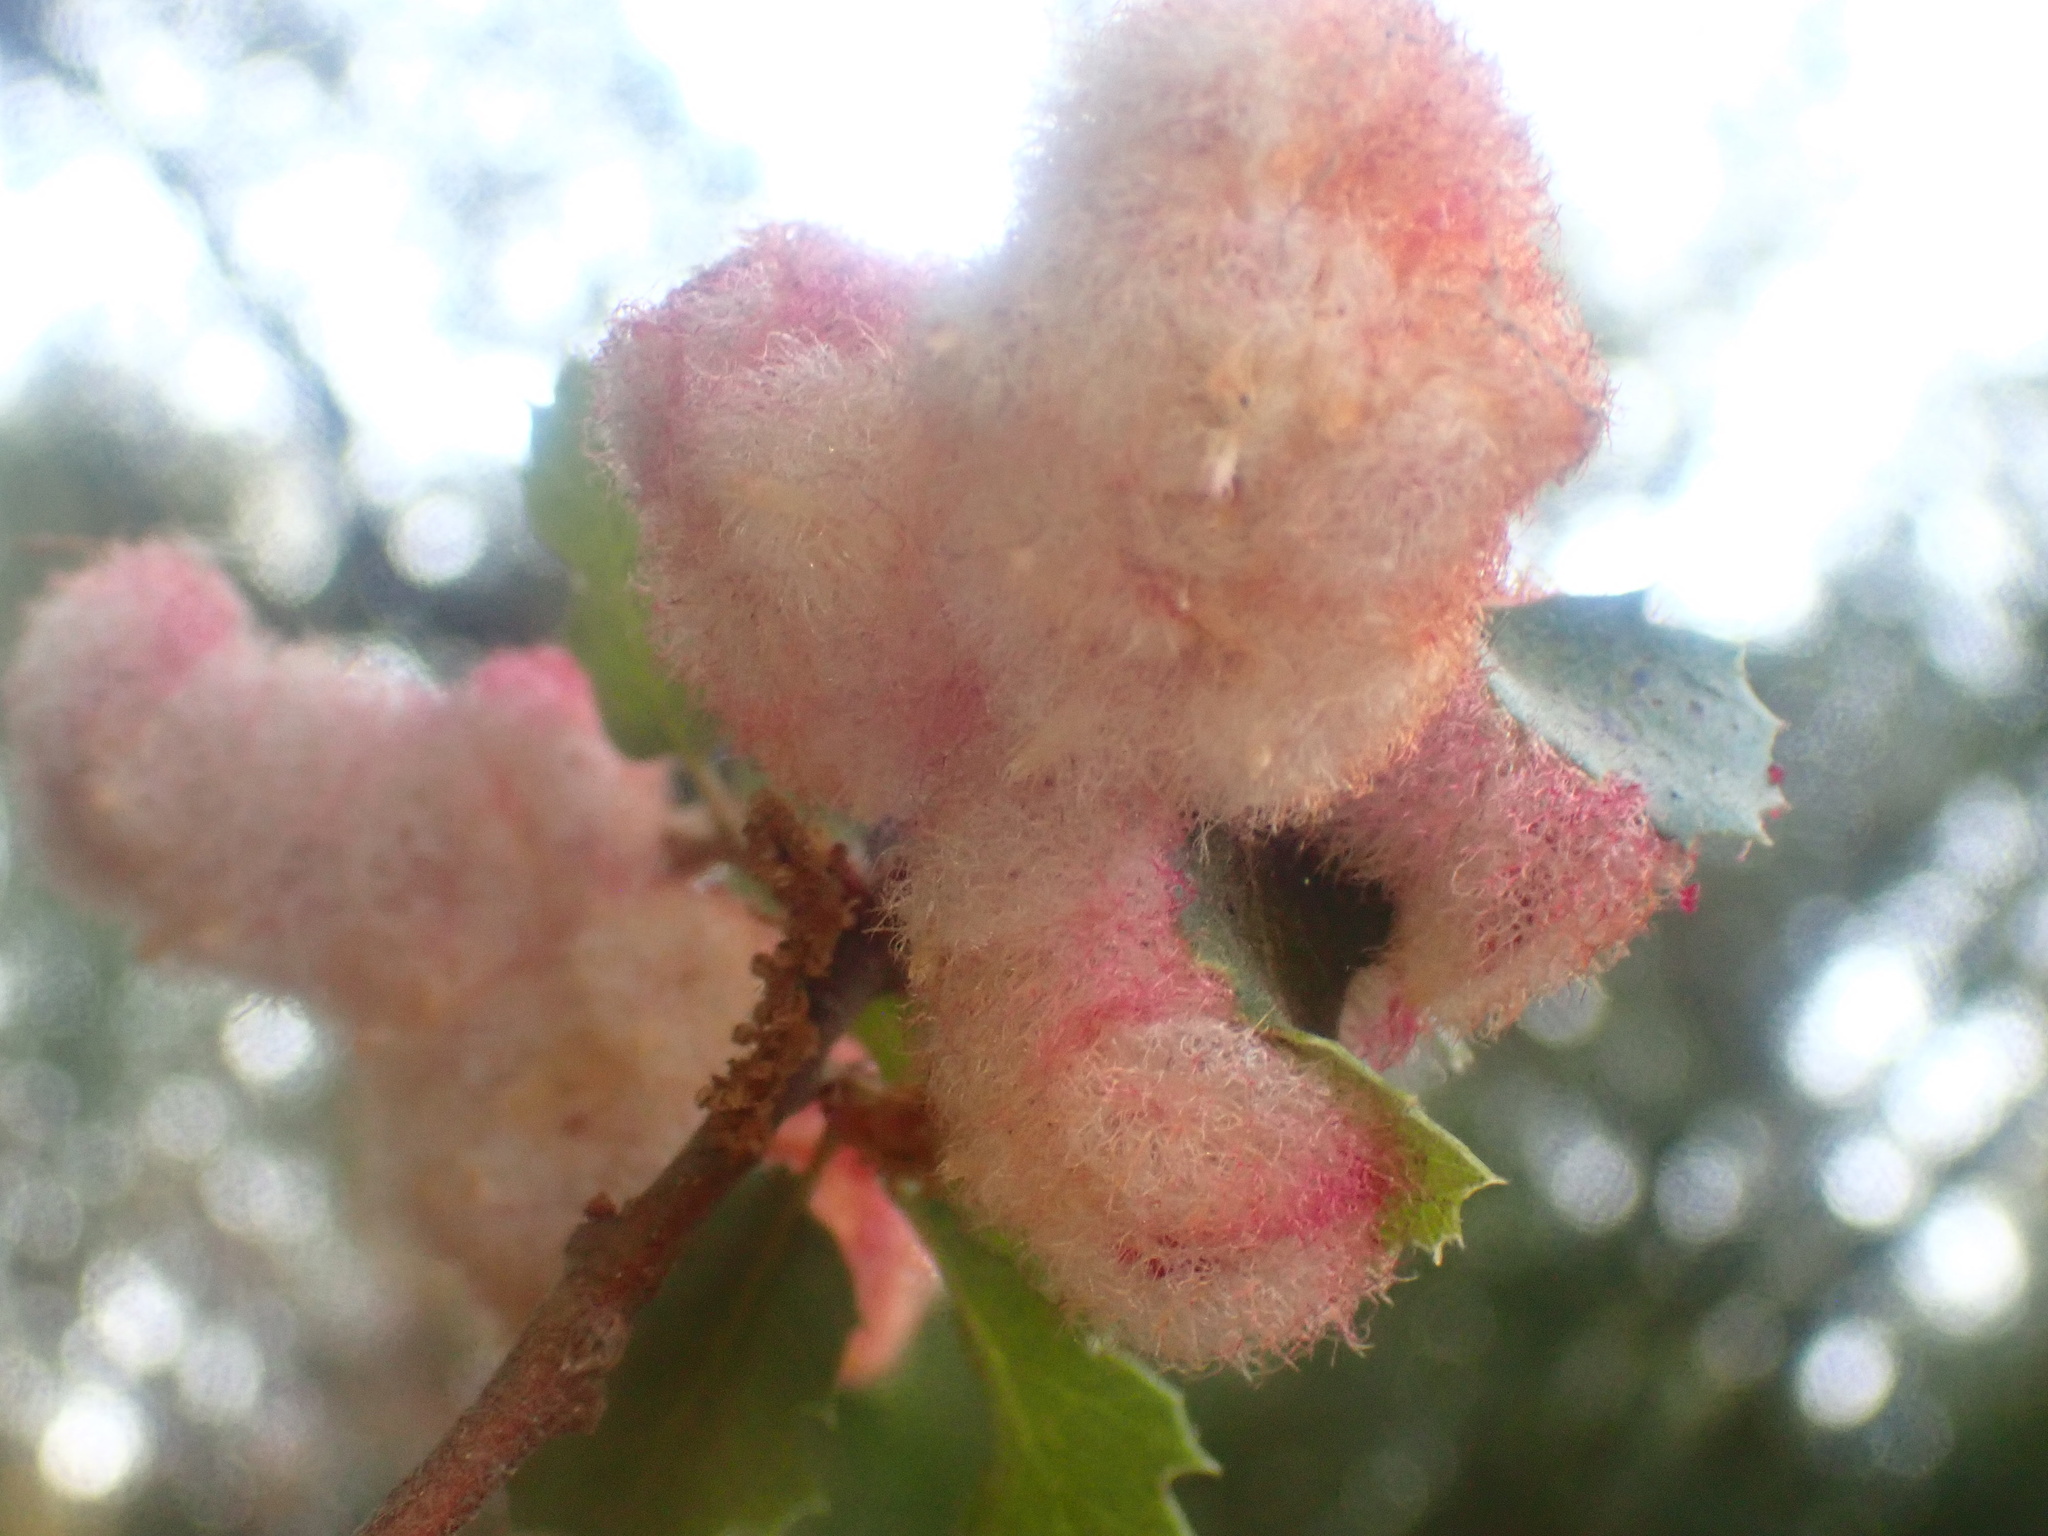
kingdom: Animalia
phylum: Arthropoda
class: Insecta
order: Hymenoptera
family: Cynipidae
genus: Andricus
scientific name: Andricus
